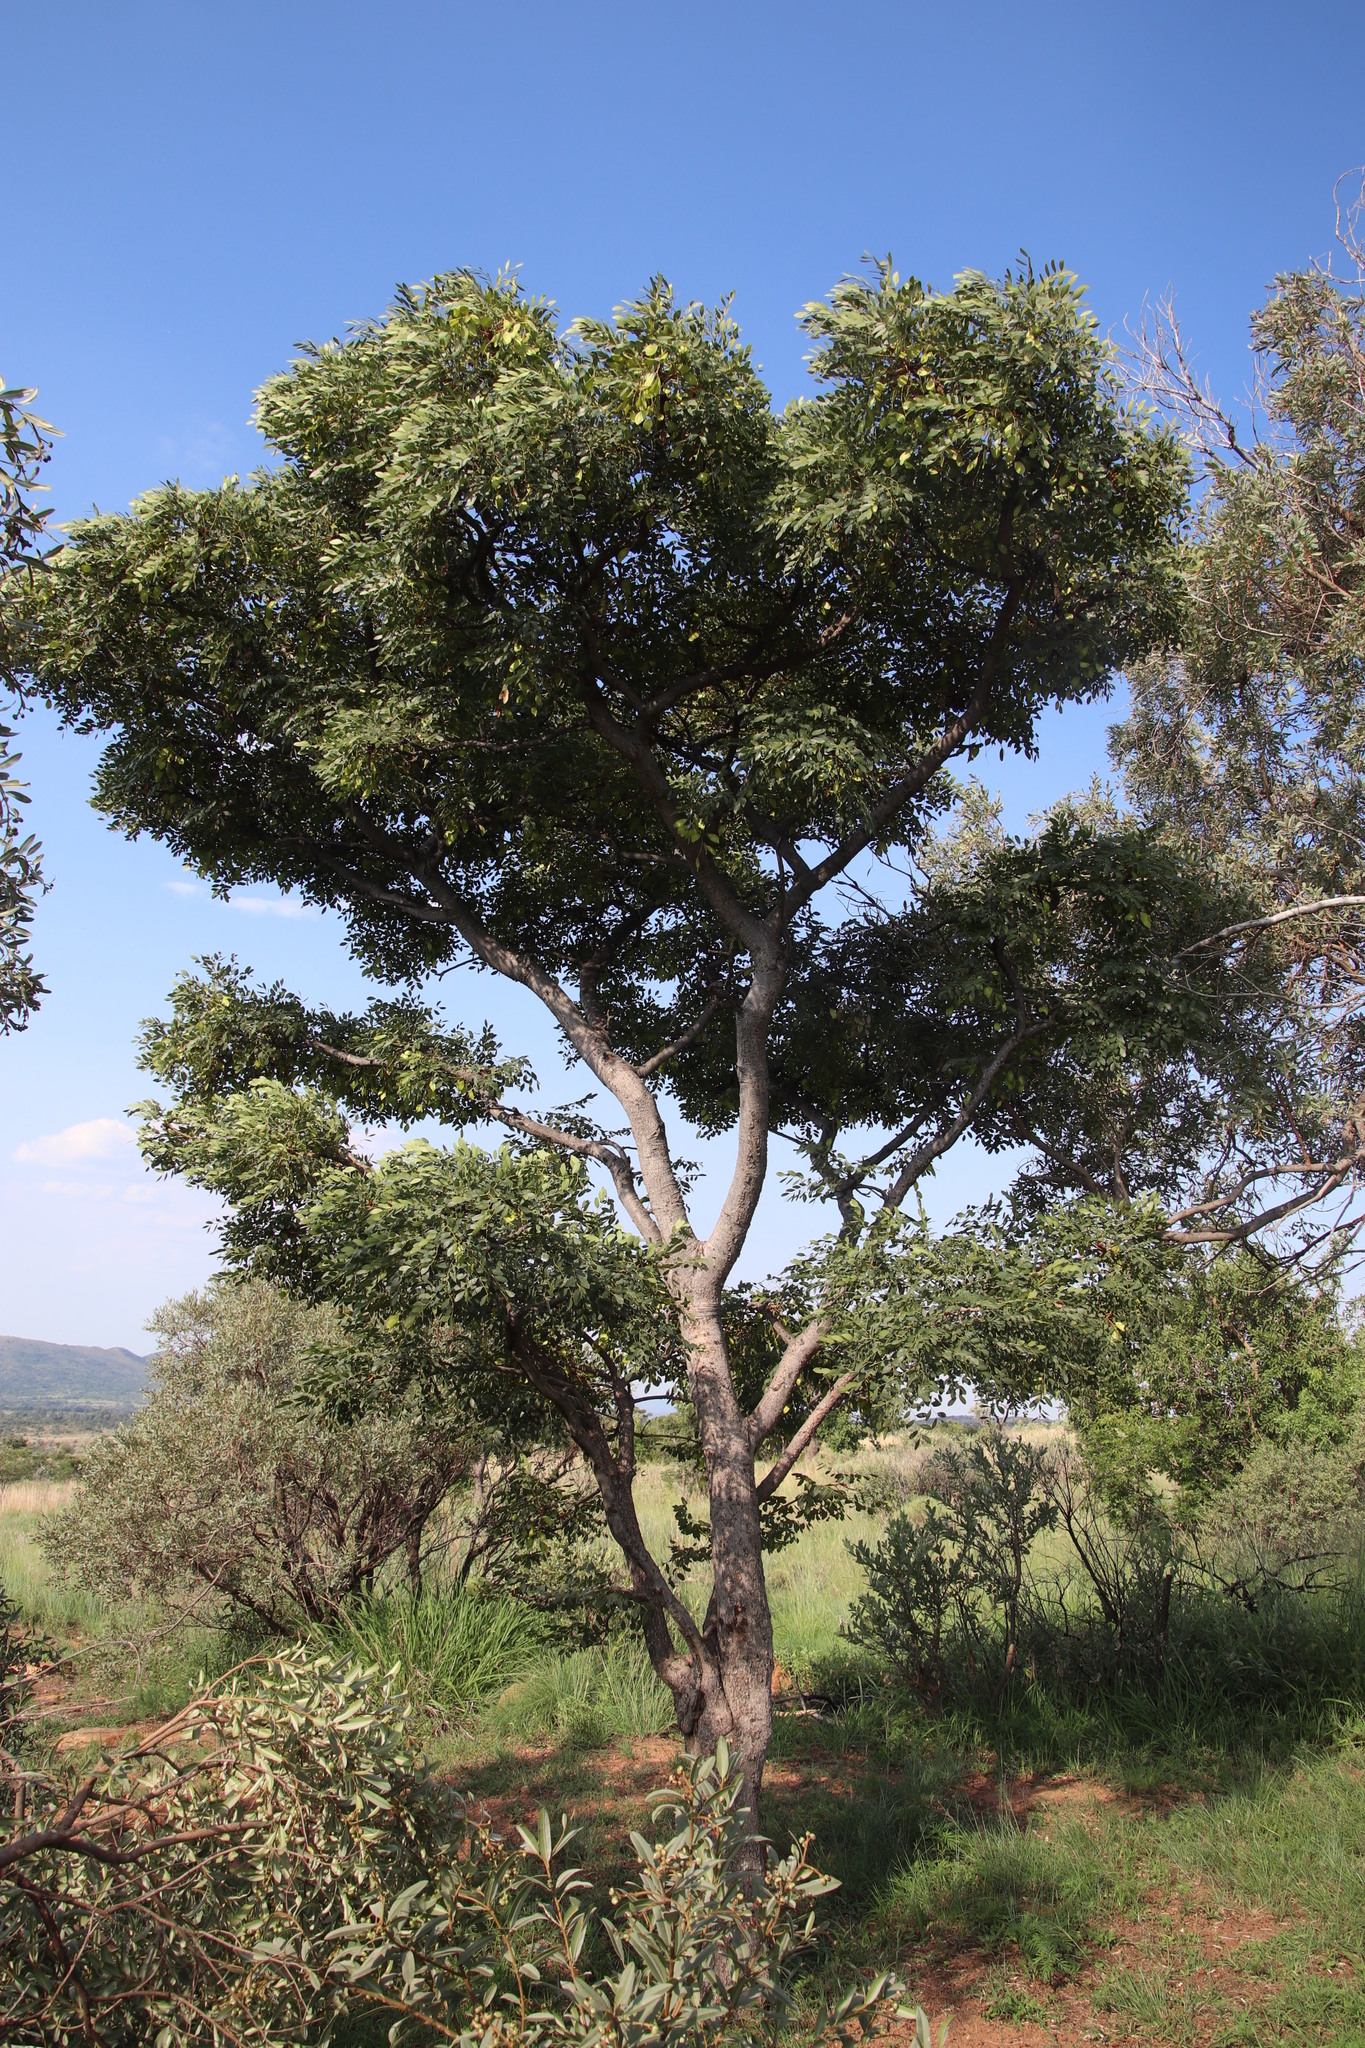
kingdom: Plantae
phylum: Tracheophyta
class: Magnoliopsida
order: Fabales
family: Fabaceae
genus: Burkea
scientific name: Burkea africana
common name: Mkalati tree
